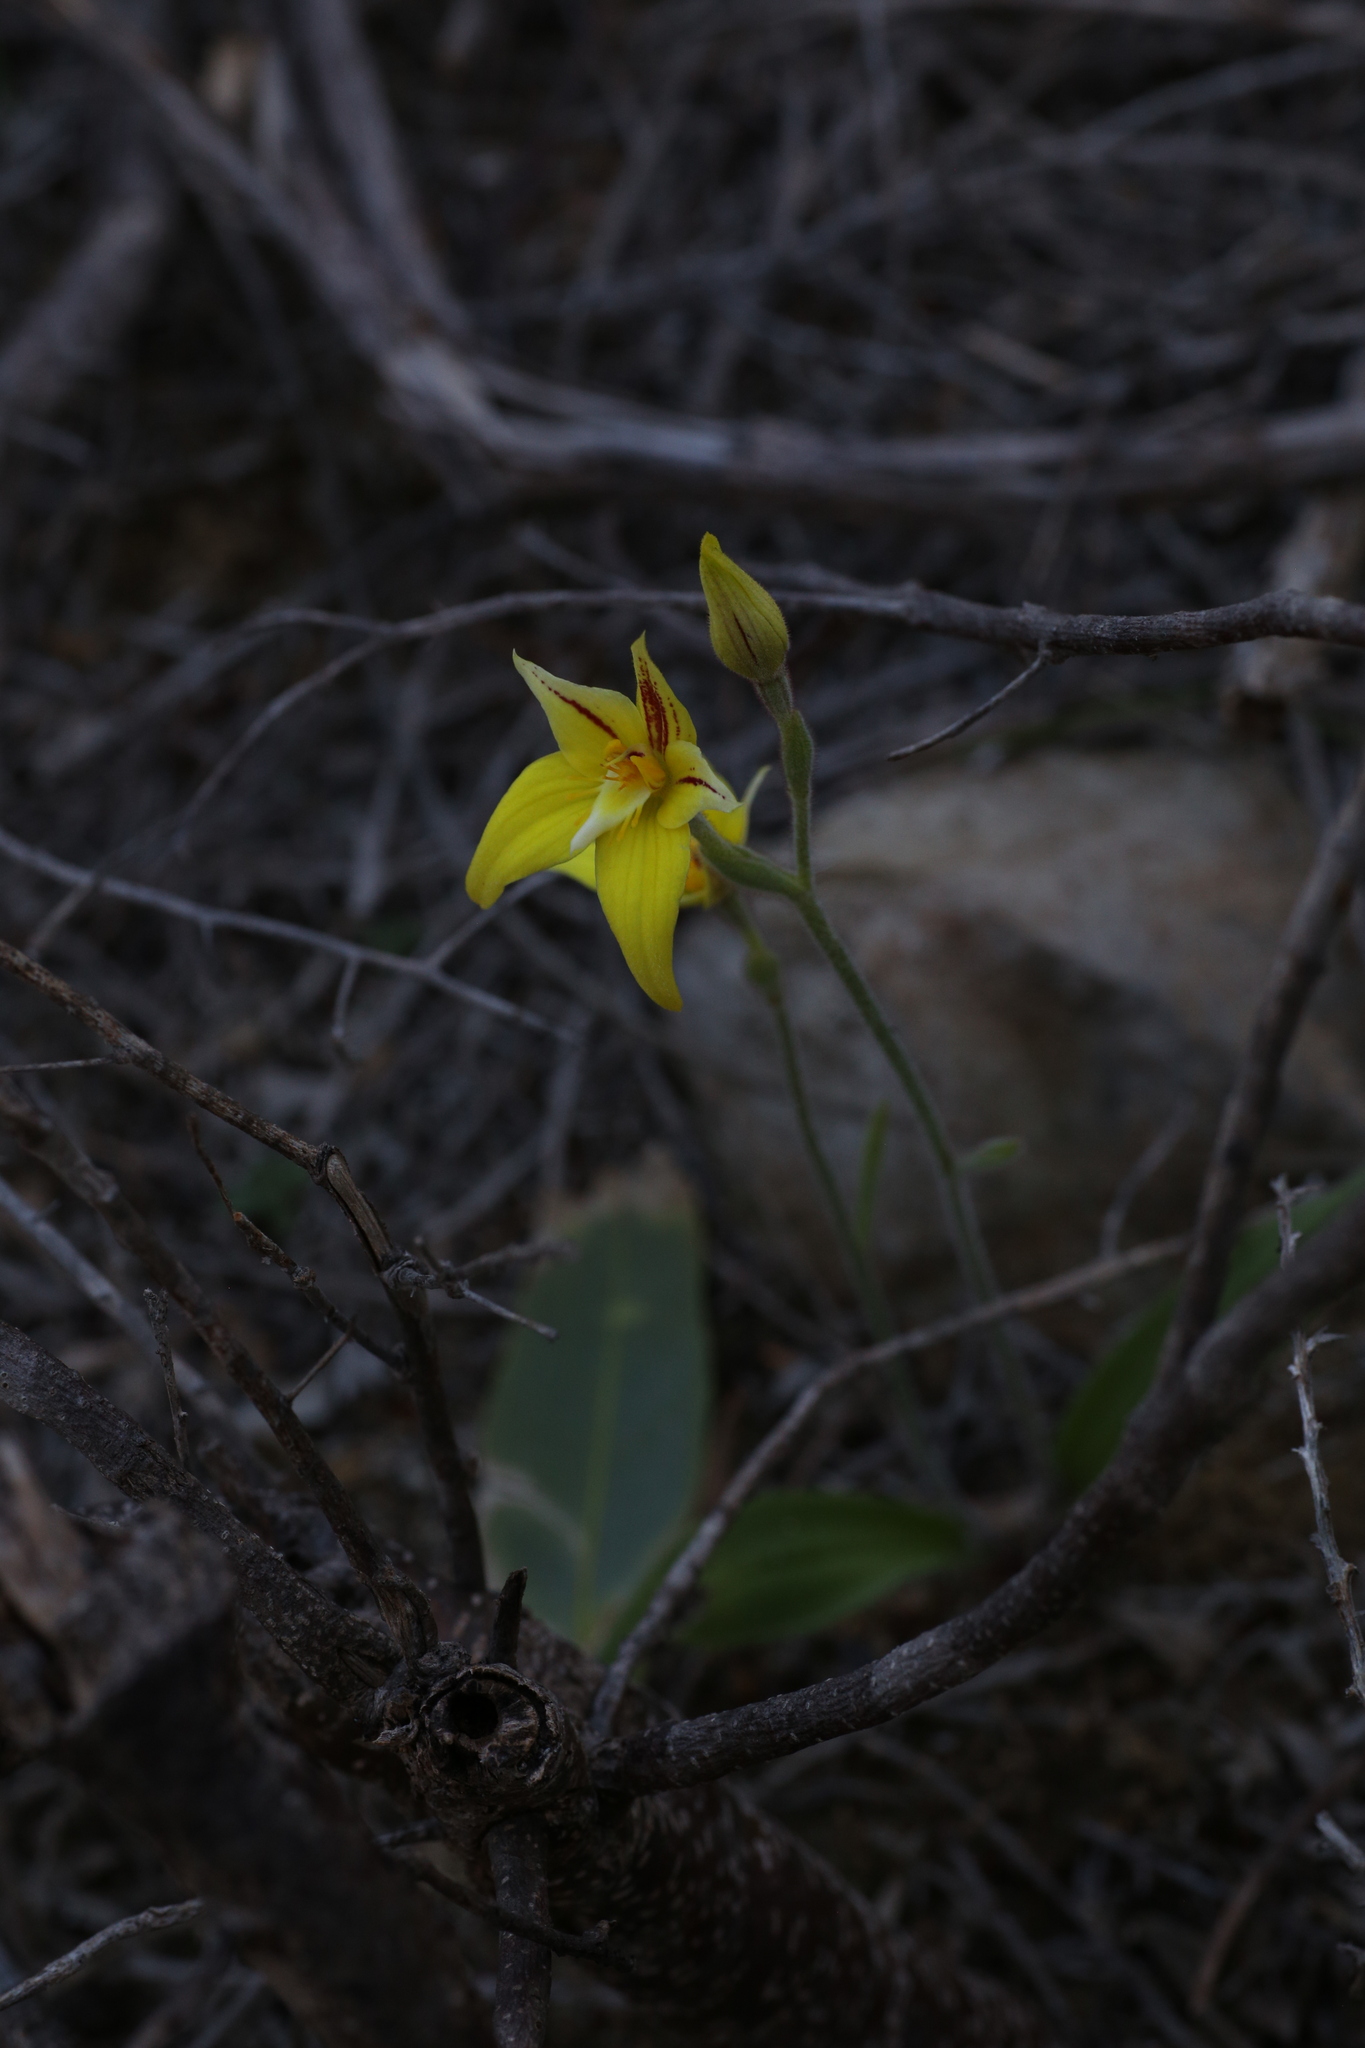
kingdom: Plantae
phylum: Tracheophyta
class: Liliopsida
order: Asparagales
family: Orchidaceae
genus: Caladenia
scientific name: Caladenia flava
